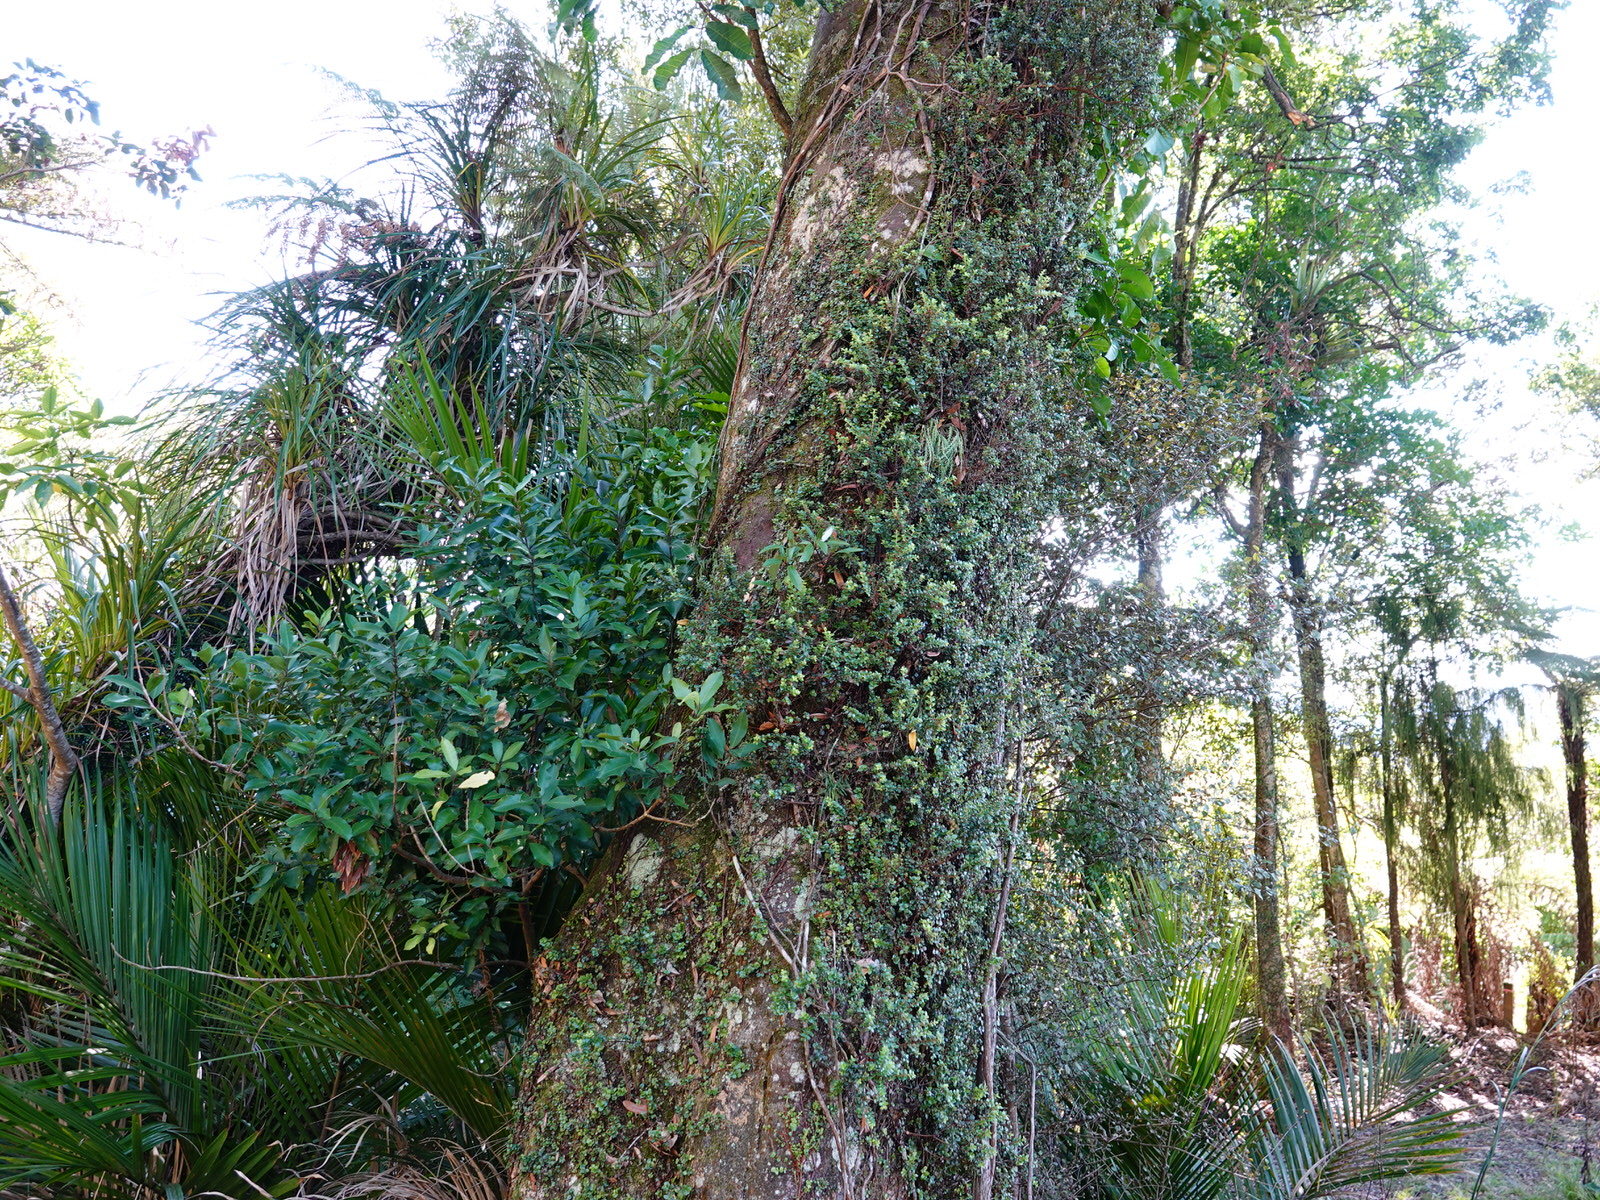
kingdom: Plantae
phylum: Tracheophyta
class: Magnoliopsida
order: Asterales
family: Asteraceae
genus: Brachyglottis
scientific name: Brachyglottis kirkii
